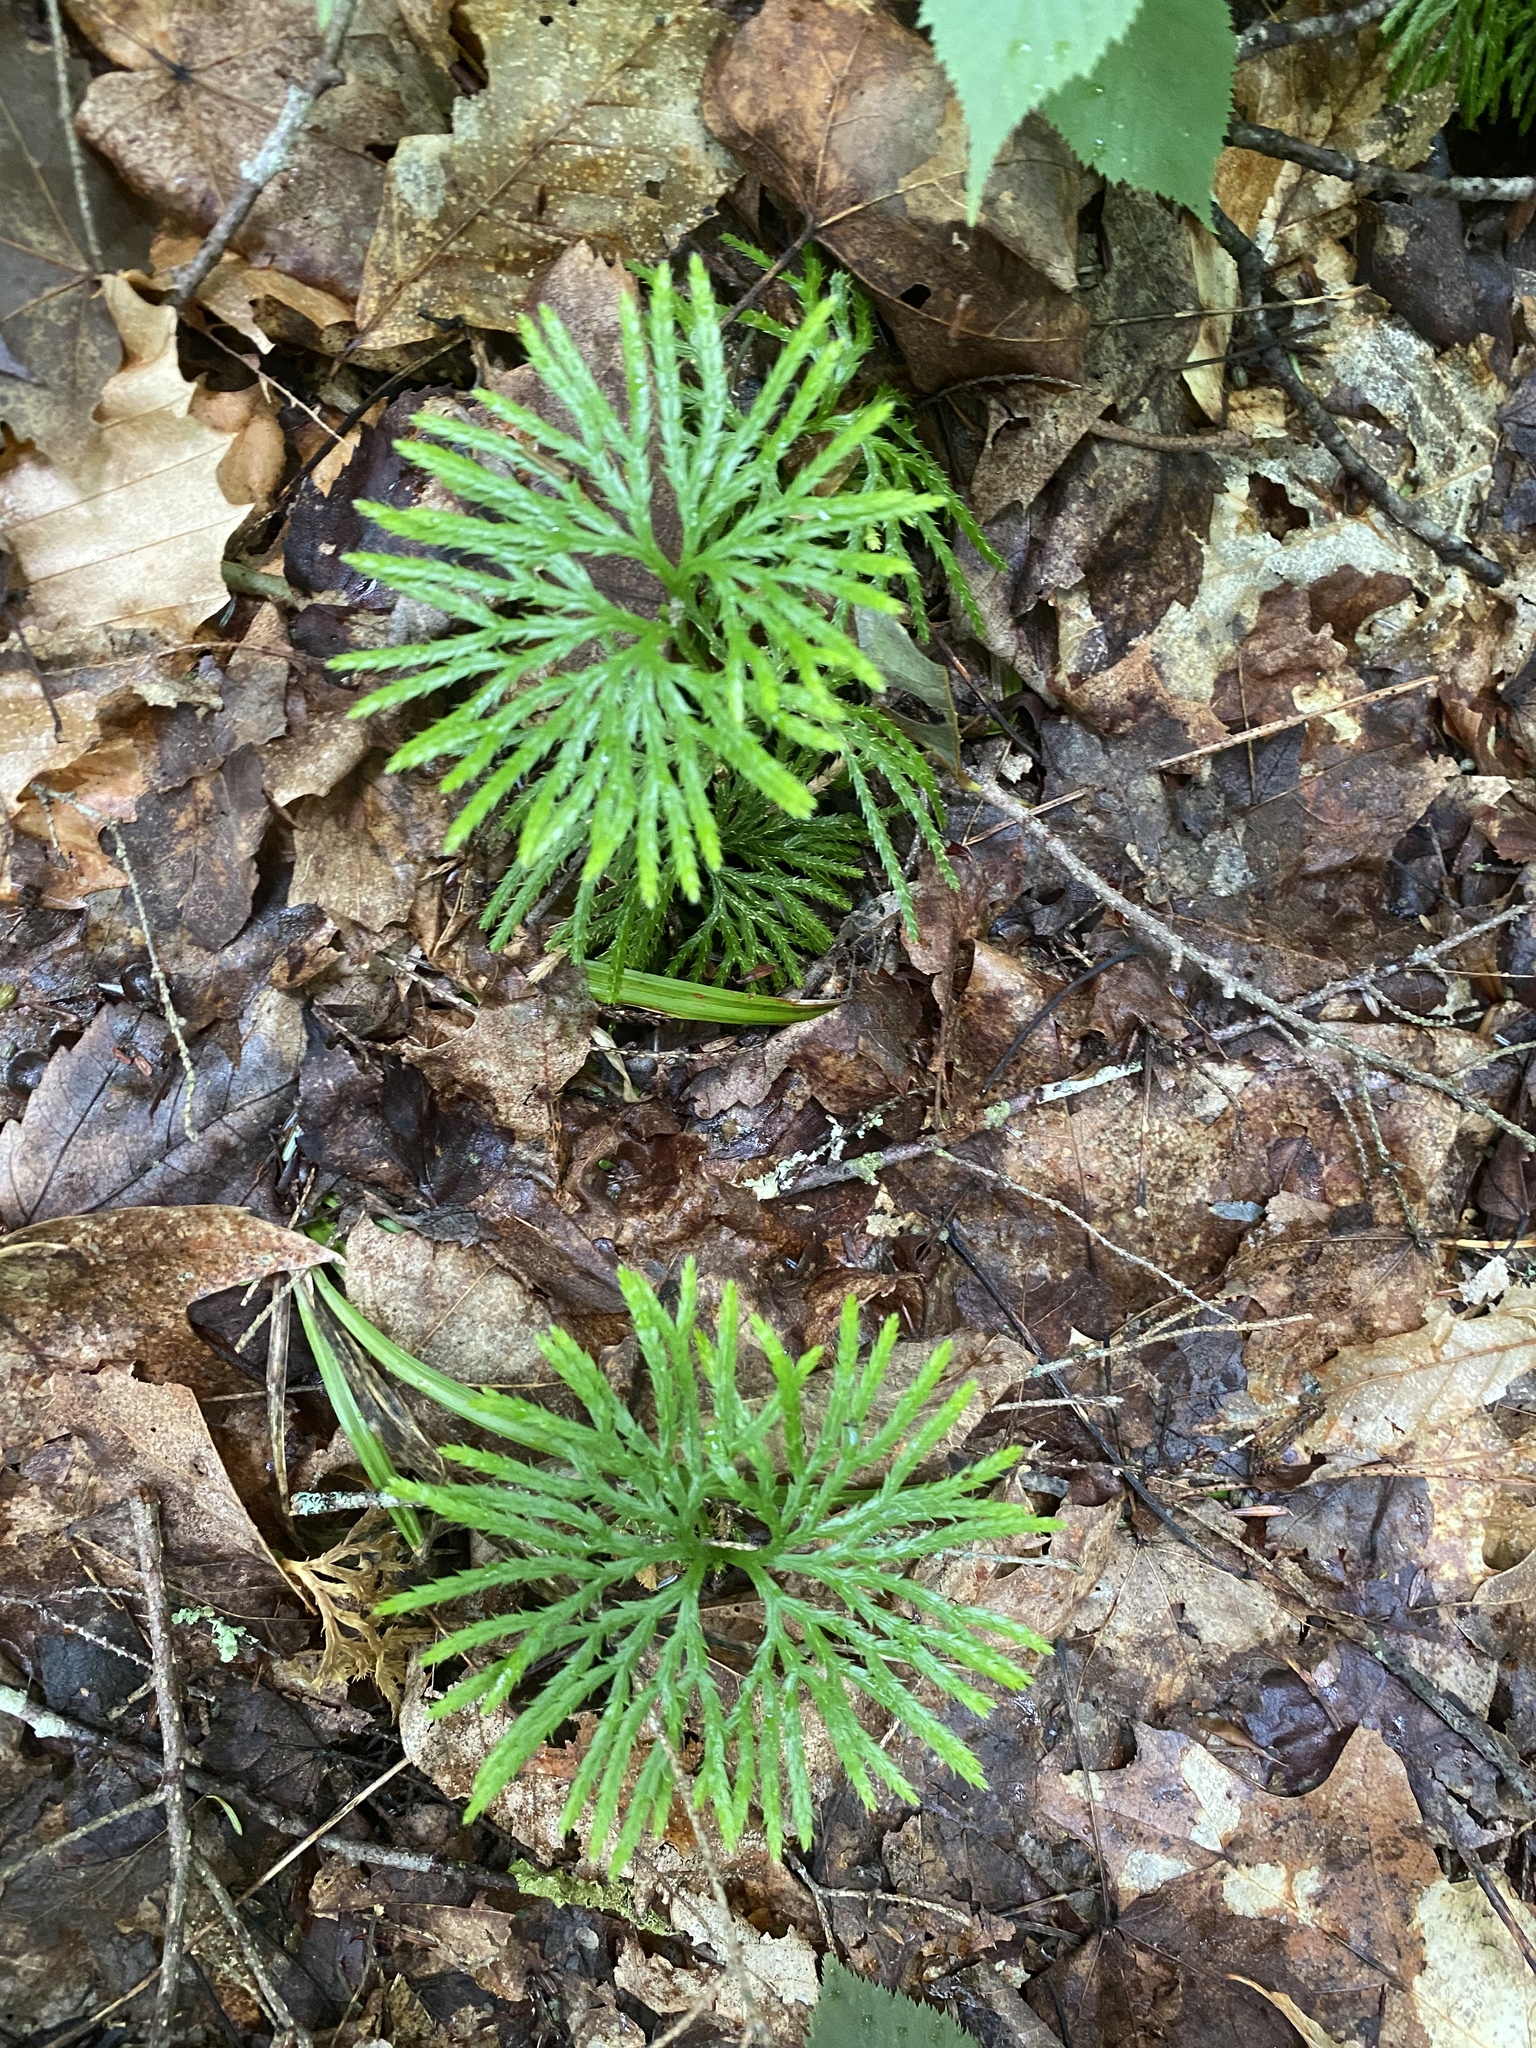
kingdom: Plantae
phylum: Tracheophyta
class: Lycopodiopsida
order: Lycopodiales
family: Lycopodiaceae
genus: Diphasiastrum
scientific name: Diphasiastrum digitatum
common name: Southern running-pine
